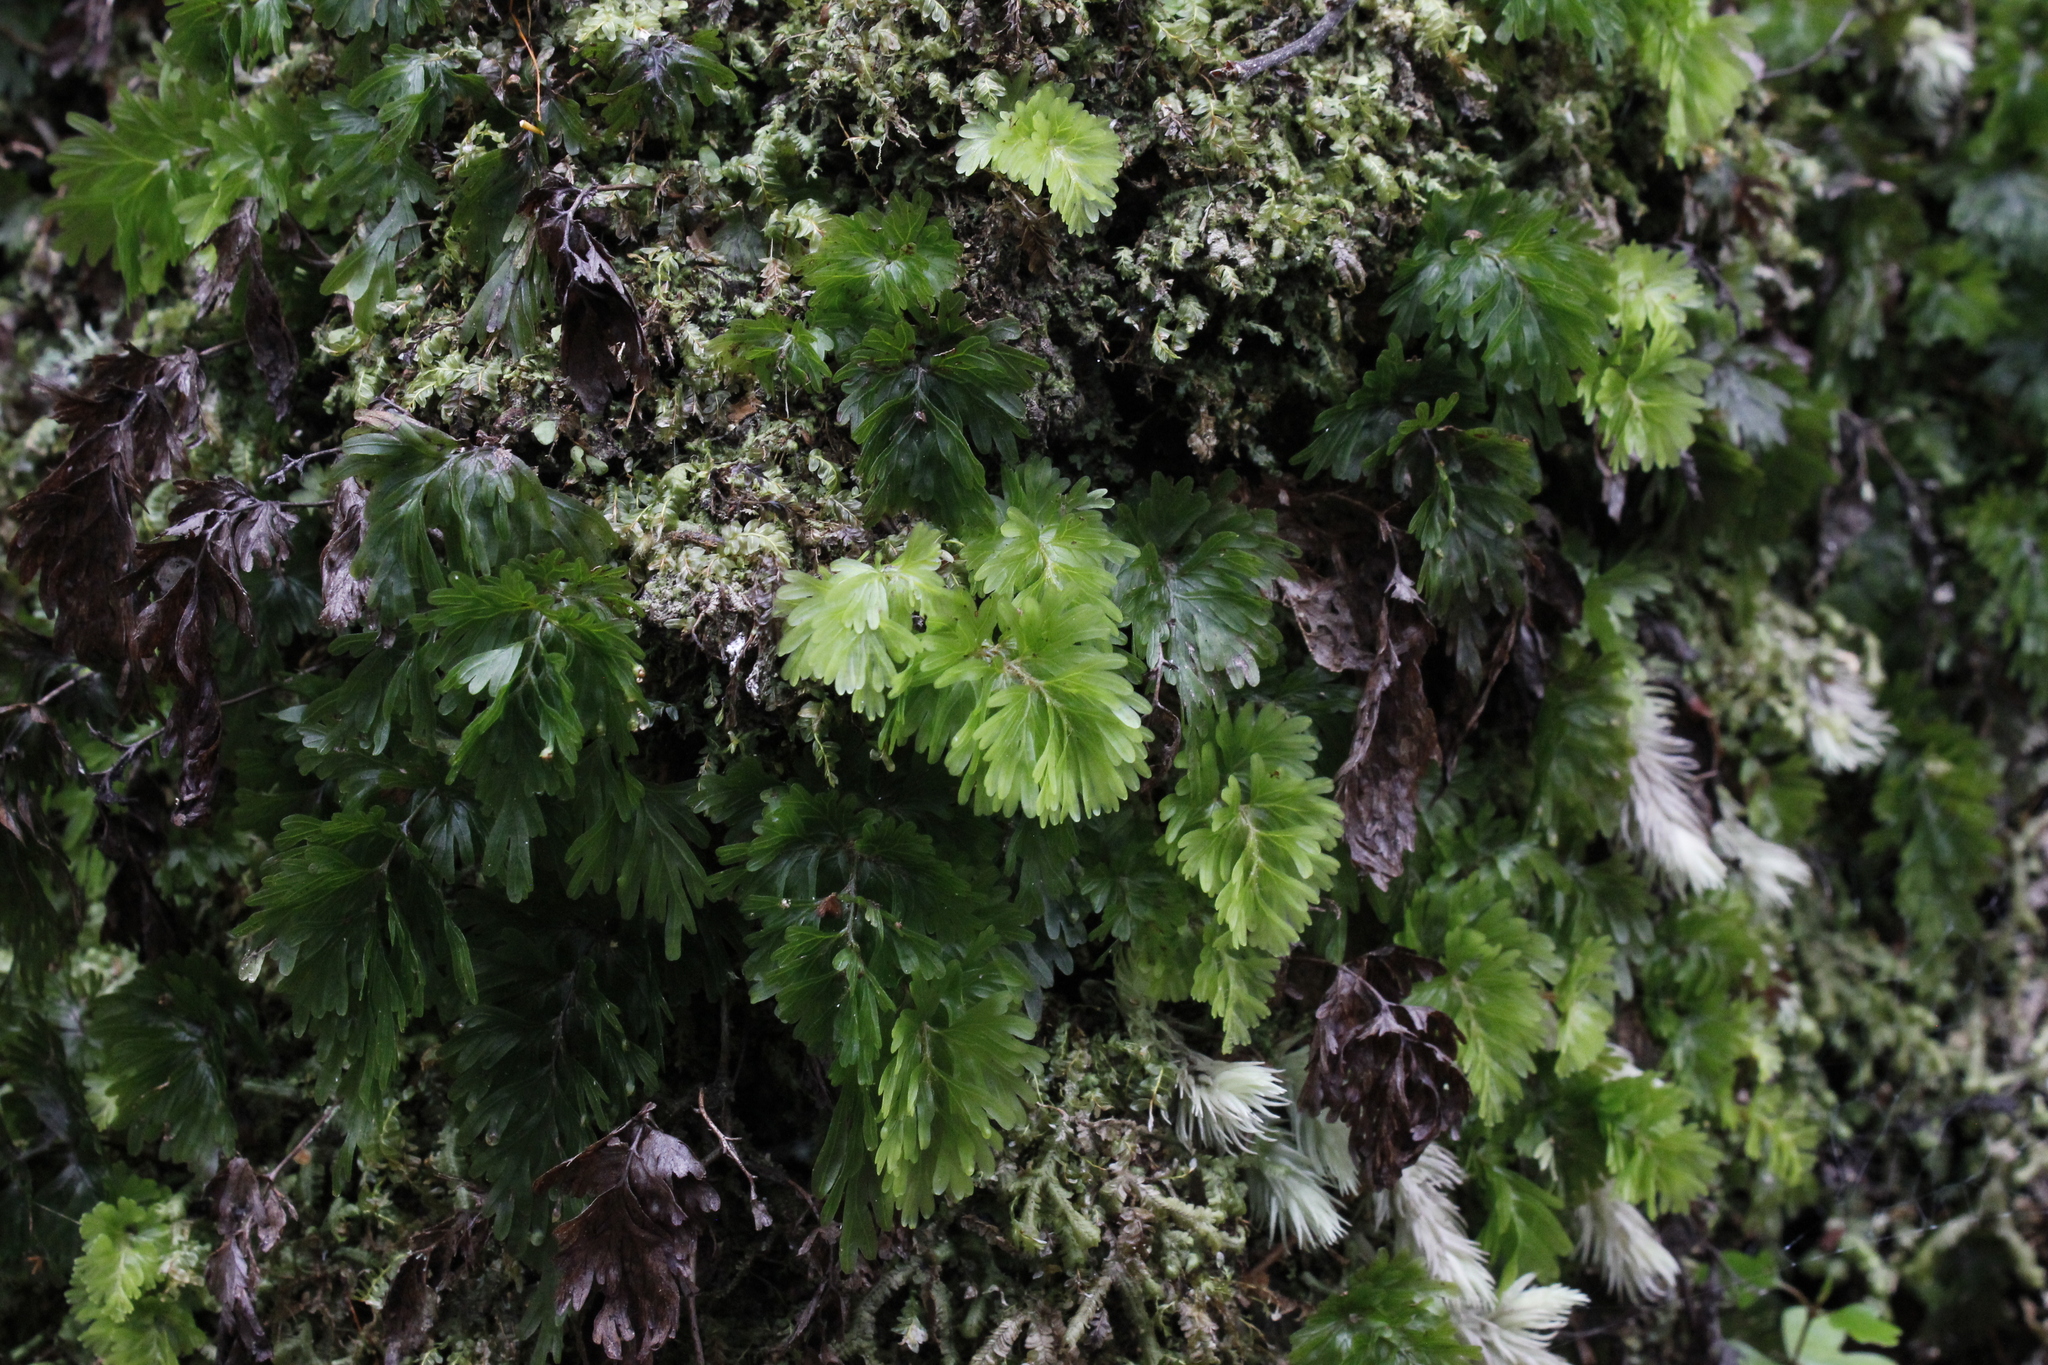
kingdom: Plantae
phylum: Tracheophyta
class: Polypodiopsida
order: Hymenophyllales
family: Hymenophyllaceae
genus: Hymenophyllum
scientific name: Hymenophyllum flabellatum
